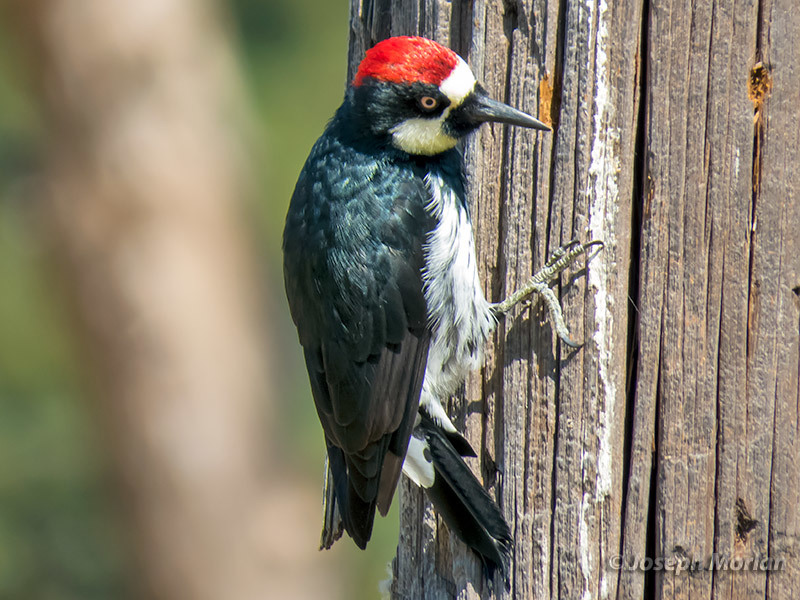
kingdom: Animalia
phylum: Chordata
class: Aves
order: Piciformes
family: Picidae
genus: Melanerpes
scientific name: Melanerpes formicivorus
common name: Acorn woodpecker
